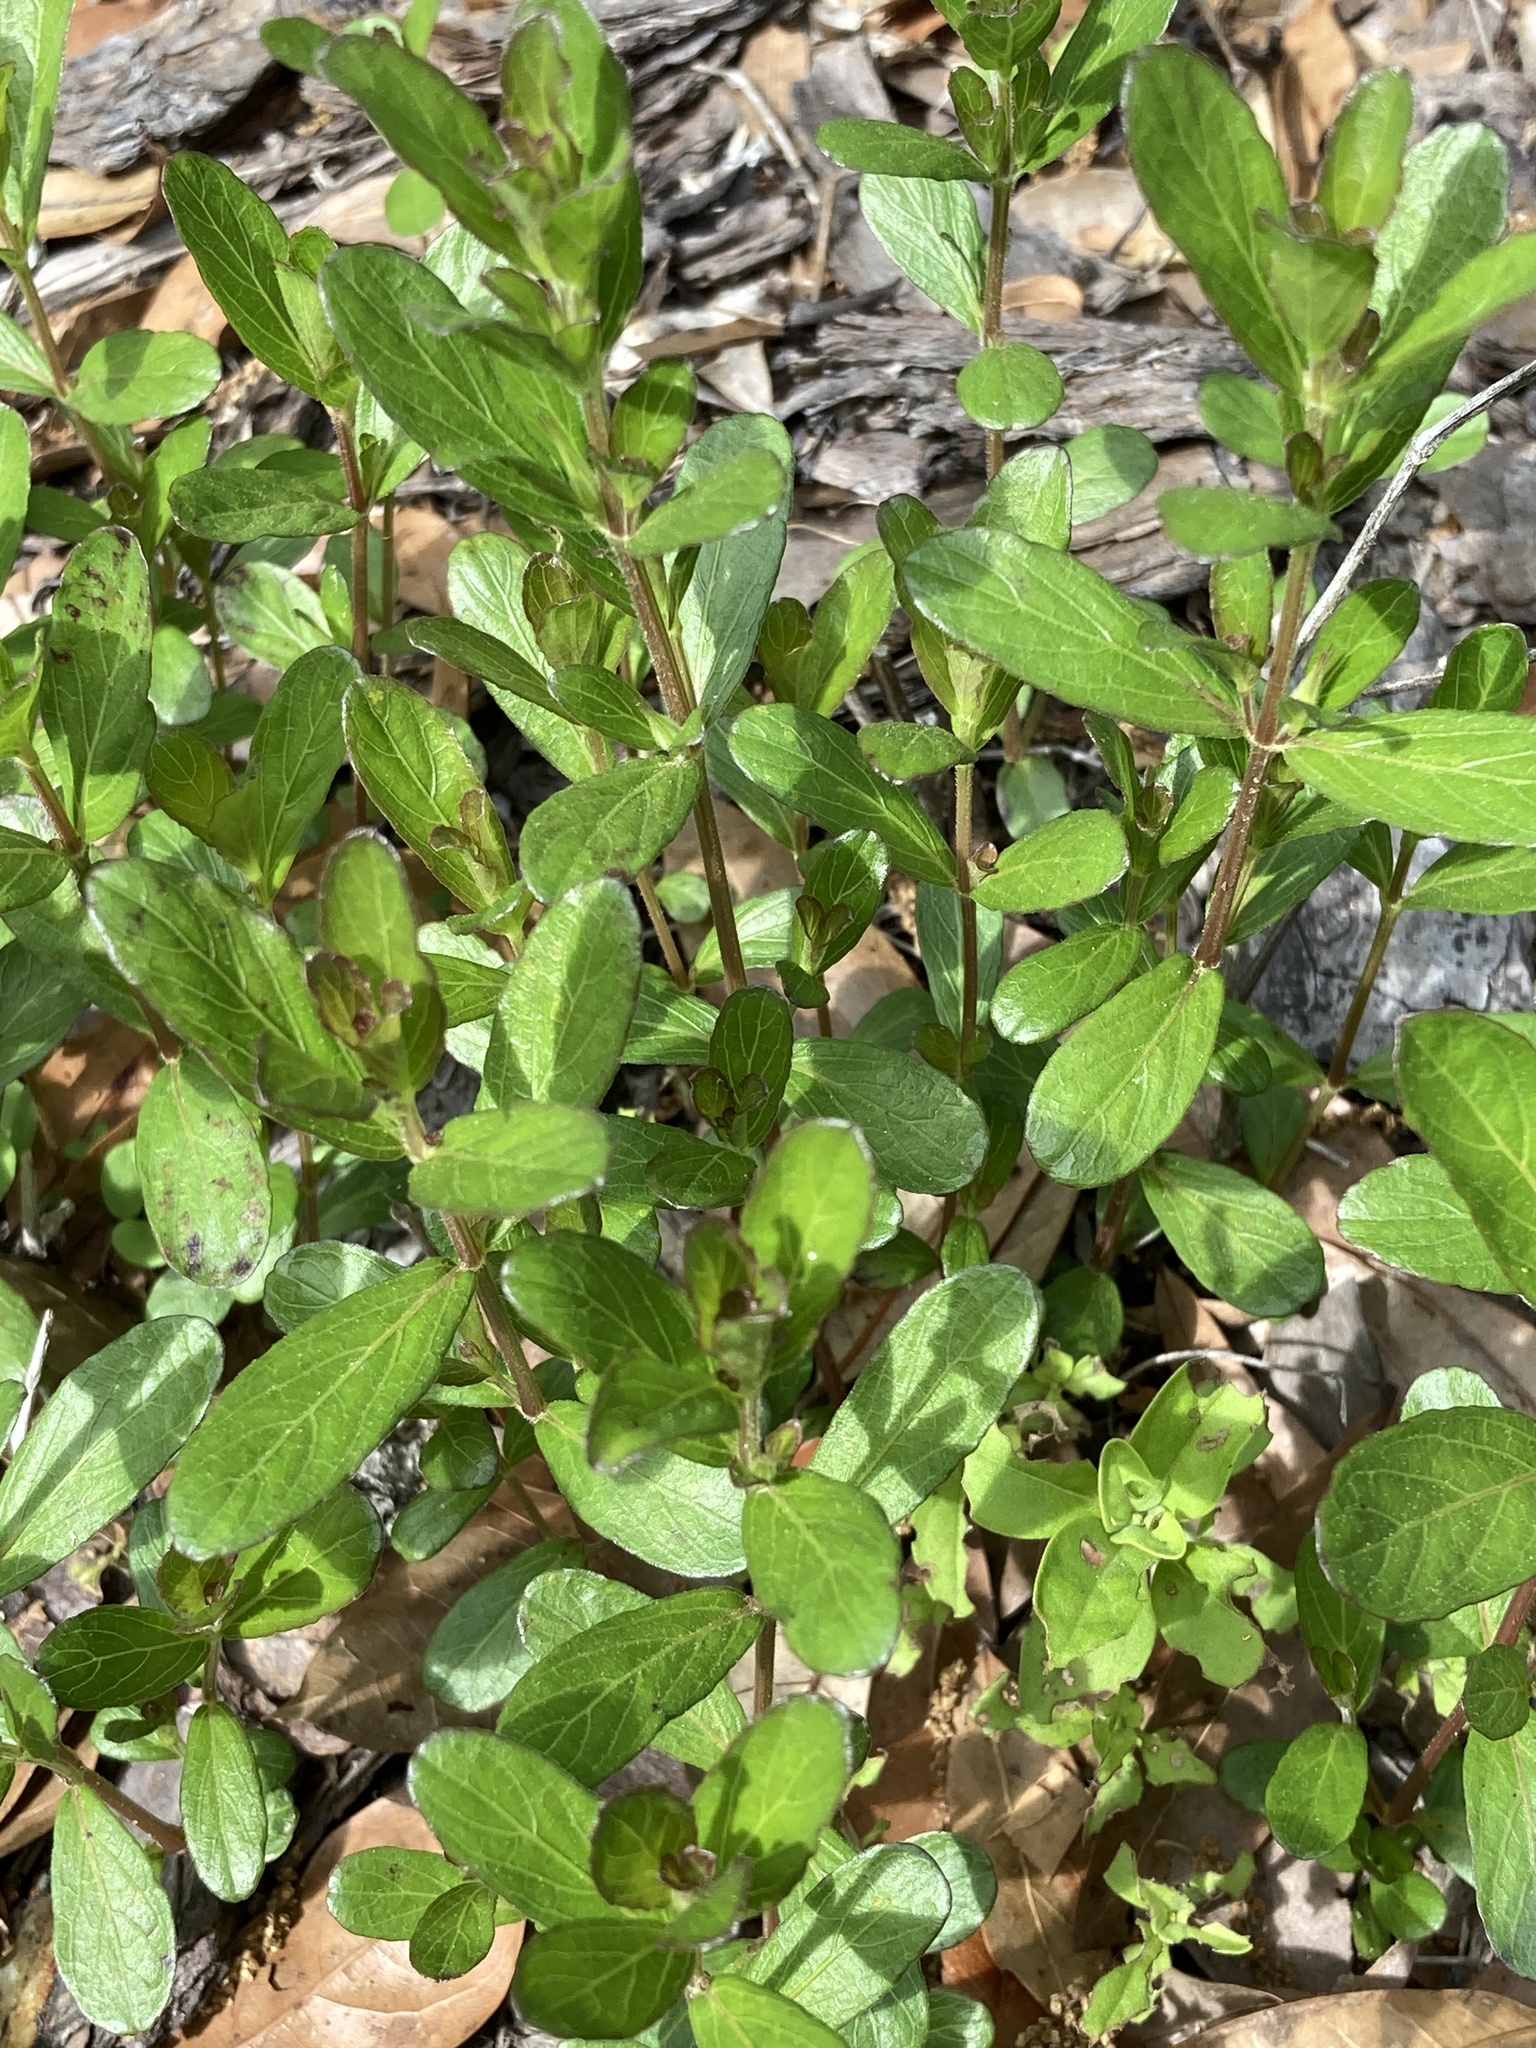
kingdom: Plantae
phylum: Tracheophyta
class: Magnoliopsida
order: Lamiales
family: Acanthaceae
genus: Dyschoriste
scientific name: Dyschoriste oblongifolia
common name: Blue twinflower
